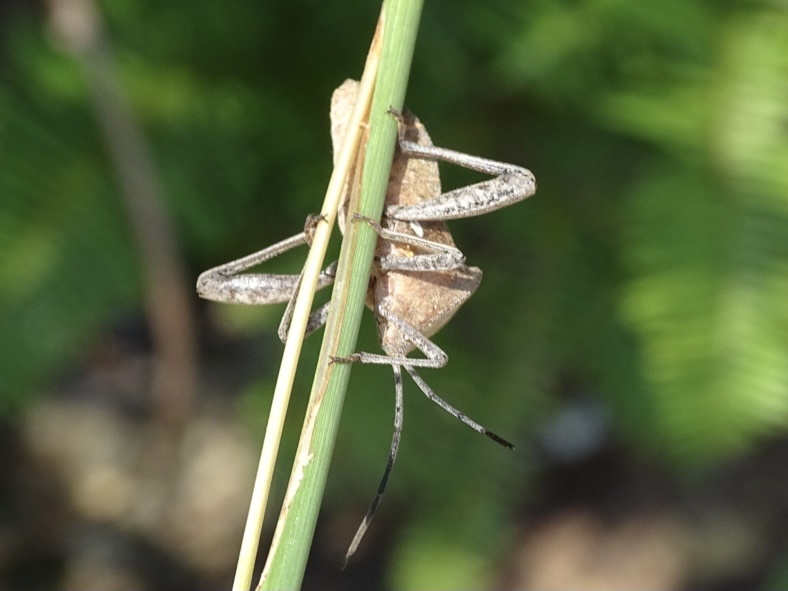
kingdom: Animalia
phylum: Arthropoda
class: Insecta
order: Hemiptera
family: Coreidae
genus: Mictis
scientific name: Mictis tenebrosa
